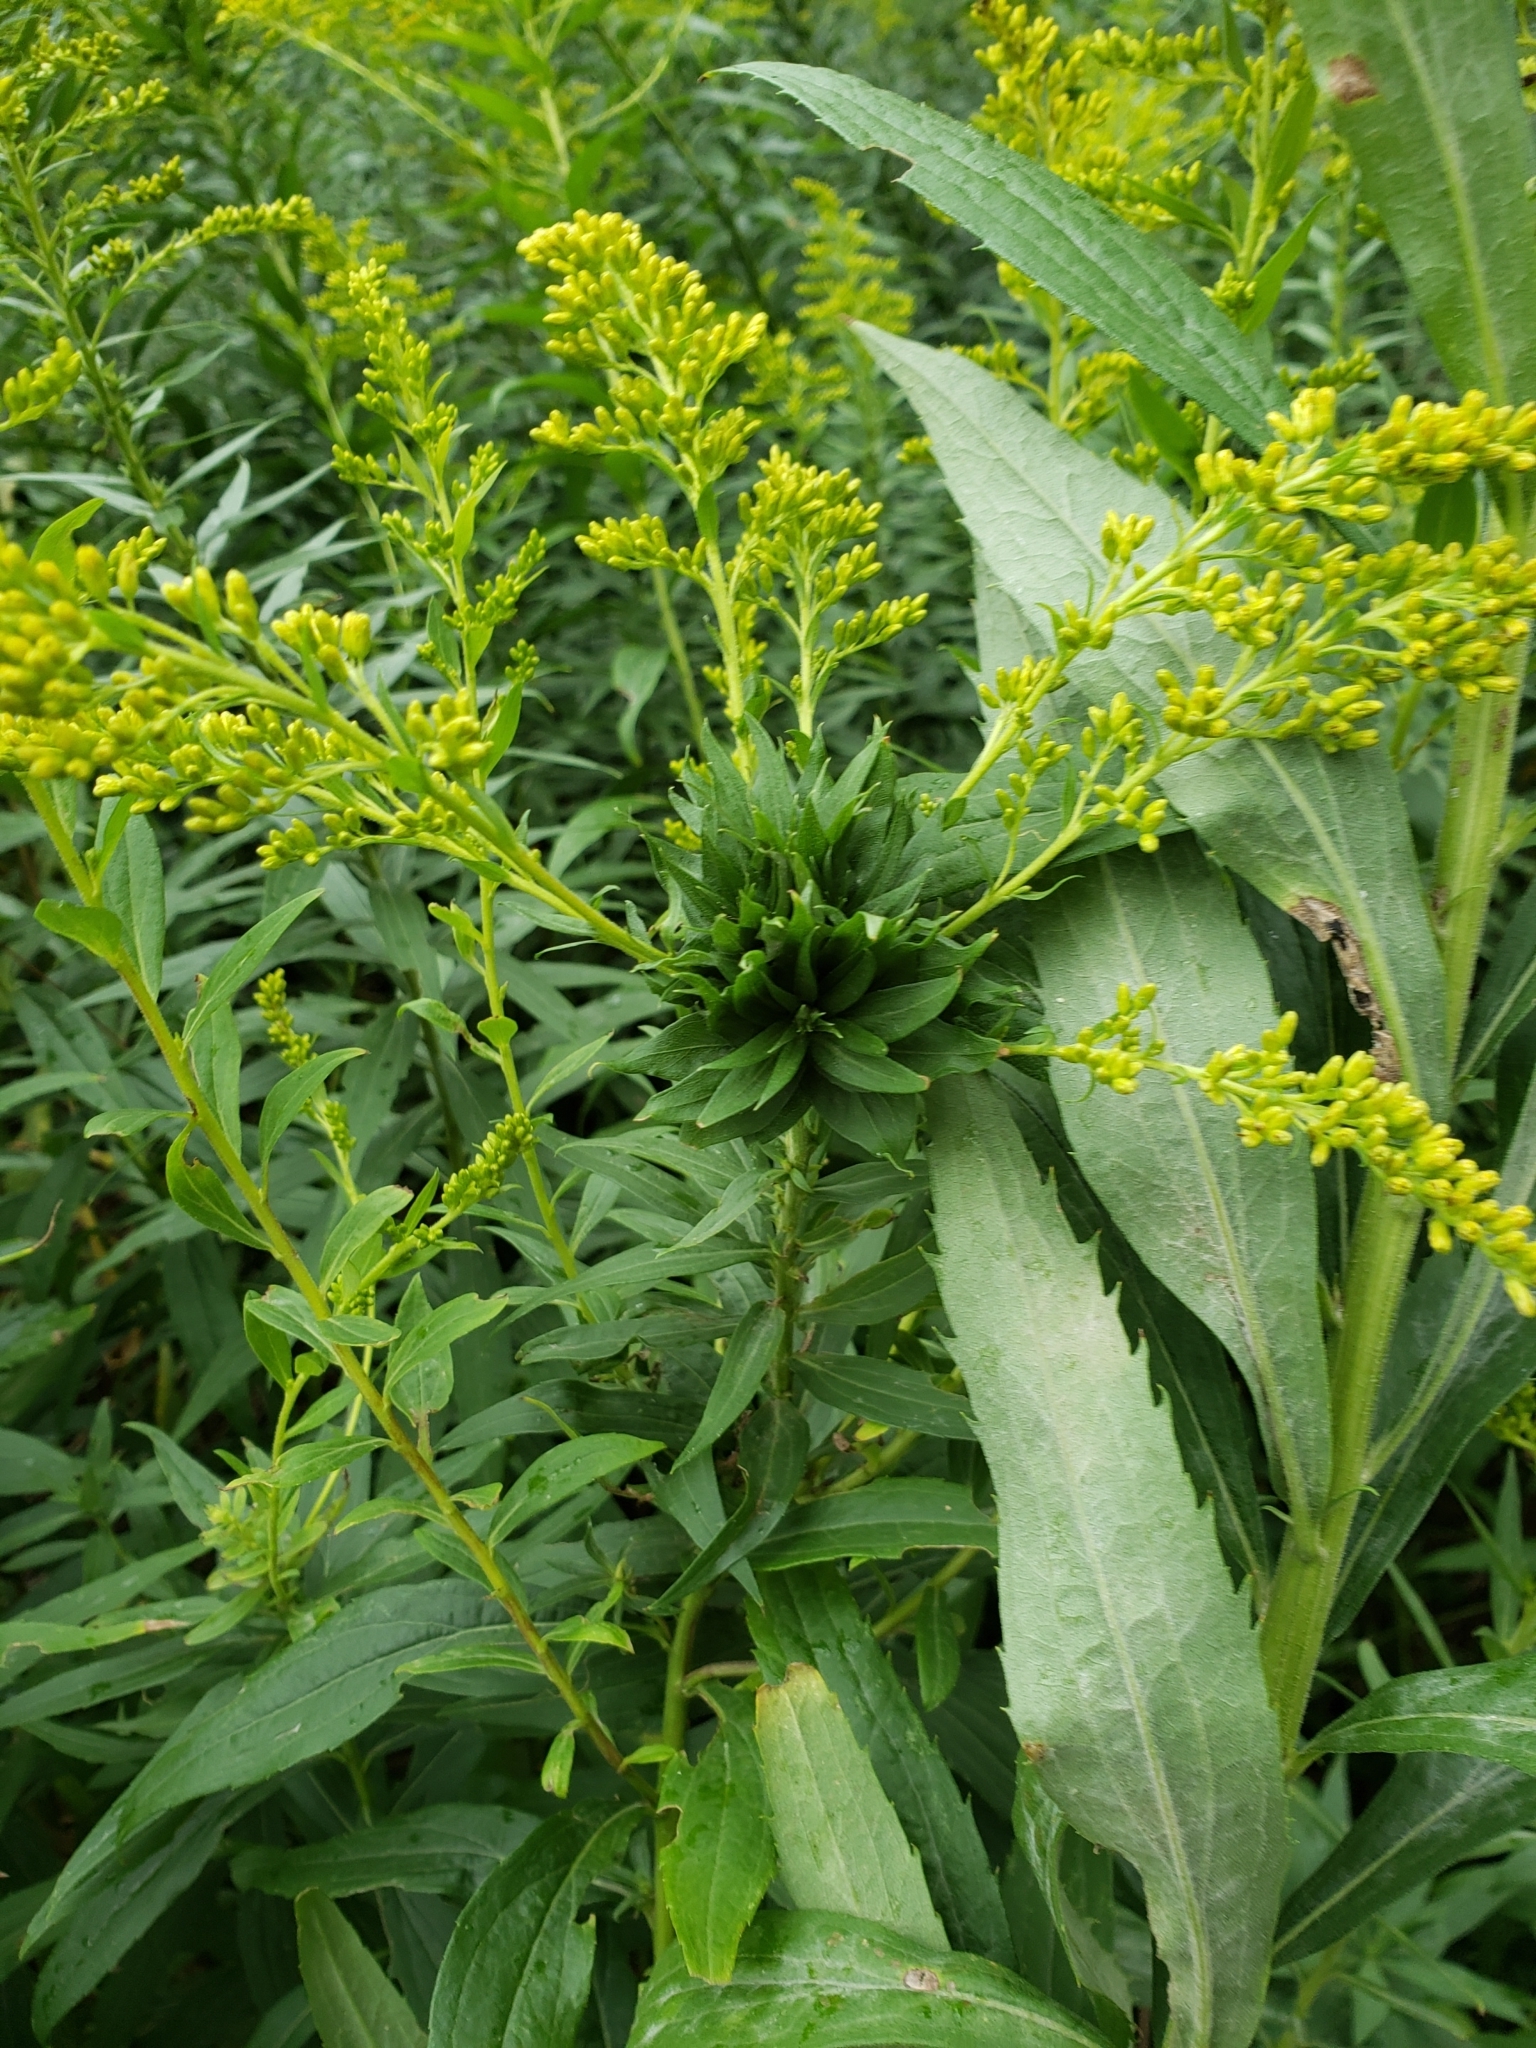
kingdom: Animalia
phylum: Arthropoda
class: Insecta
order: Diptera
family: Cecidomyiidae
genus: Rhopalomyia
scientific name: Rhopalomyia solidaginis
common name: Goldenrod bunch gall midge
